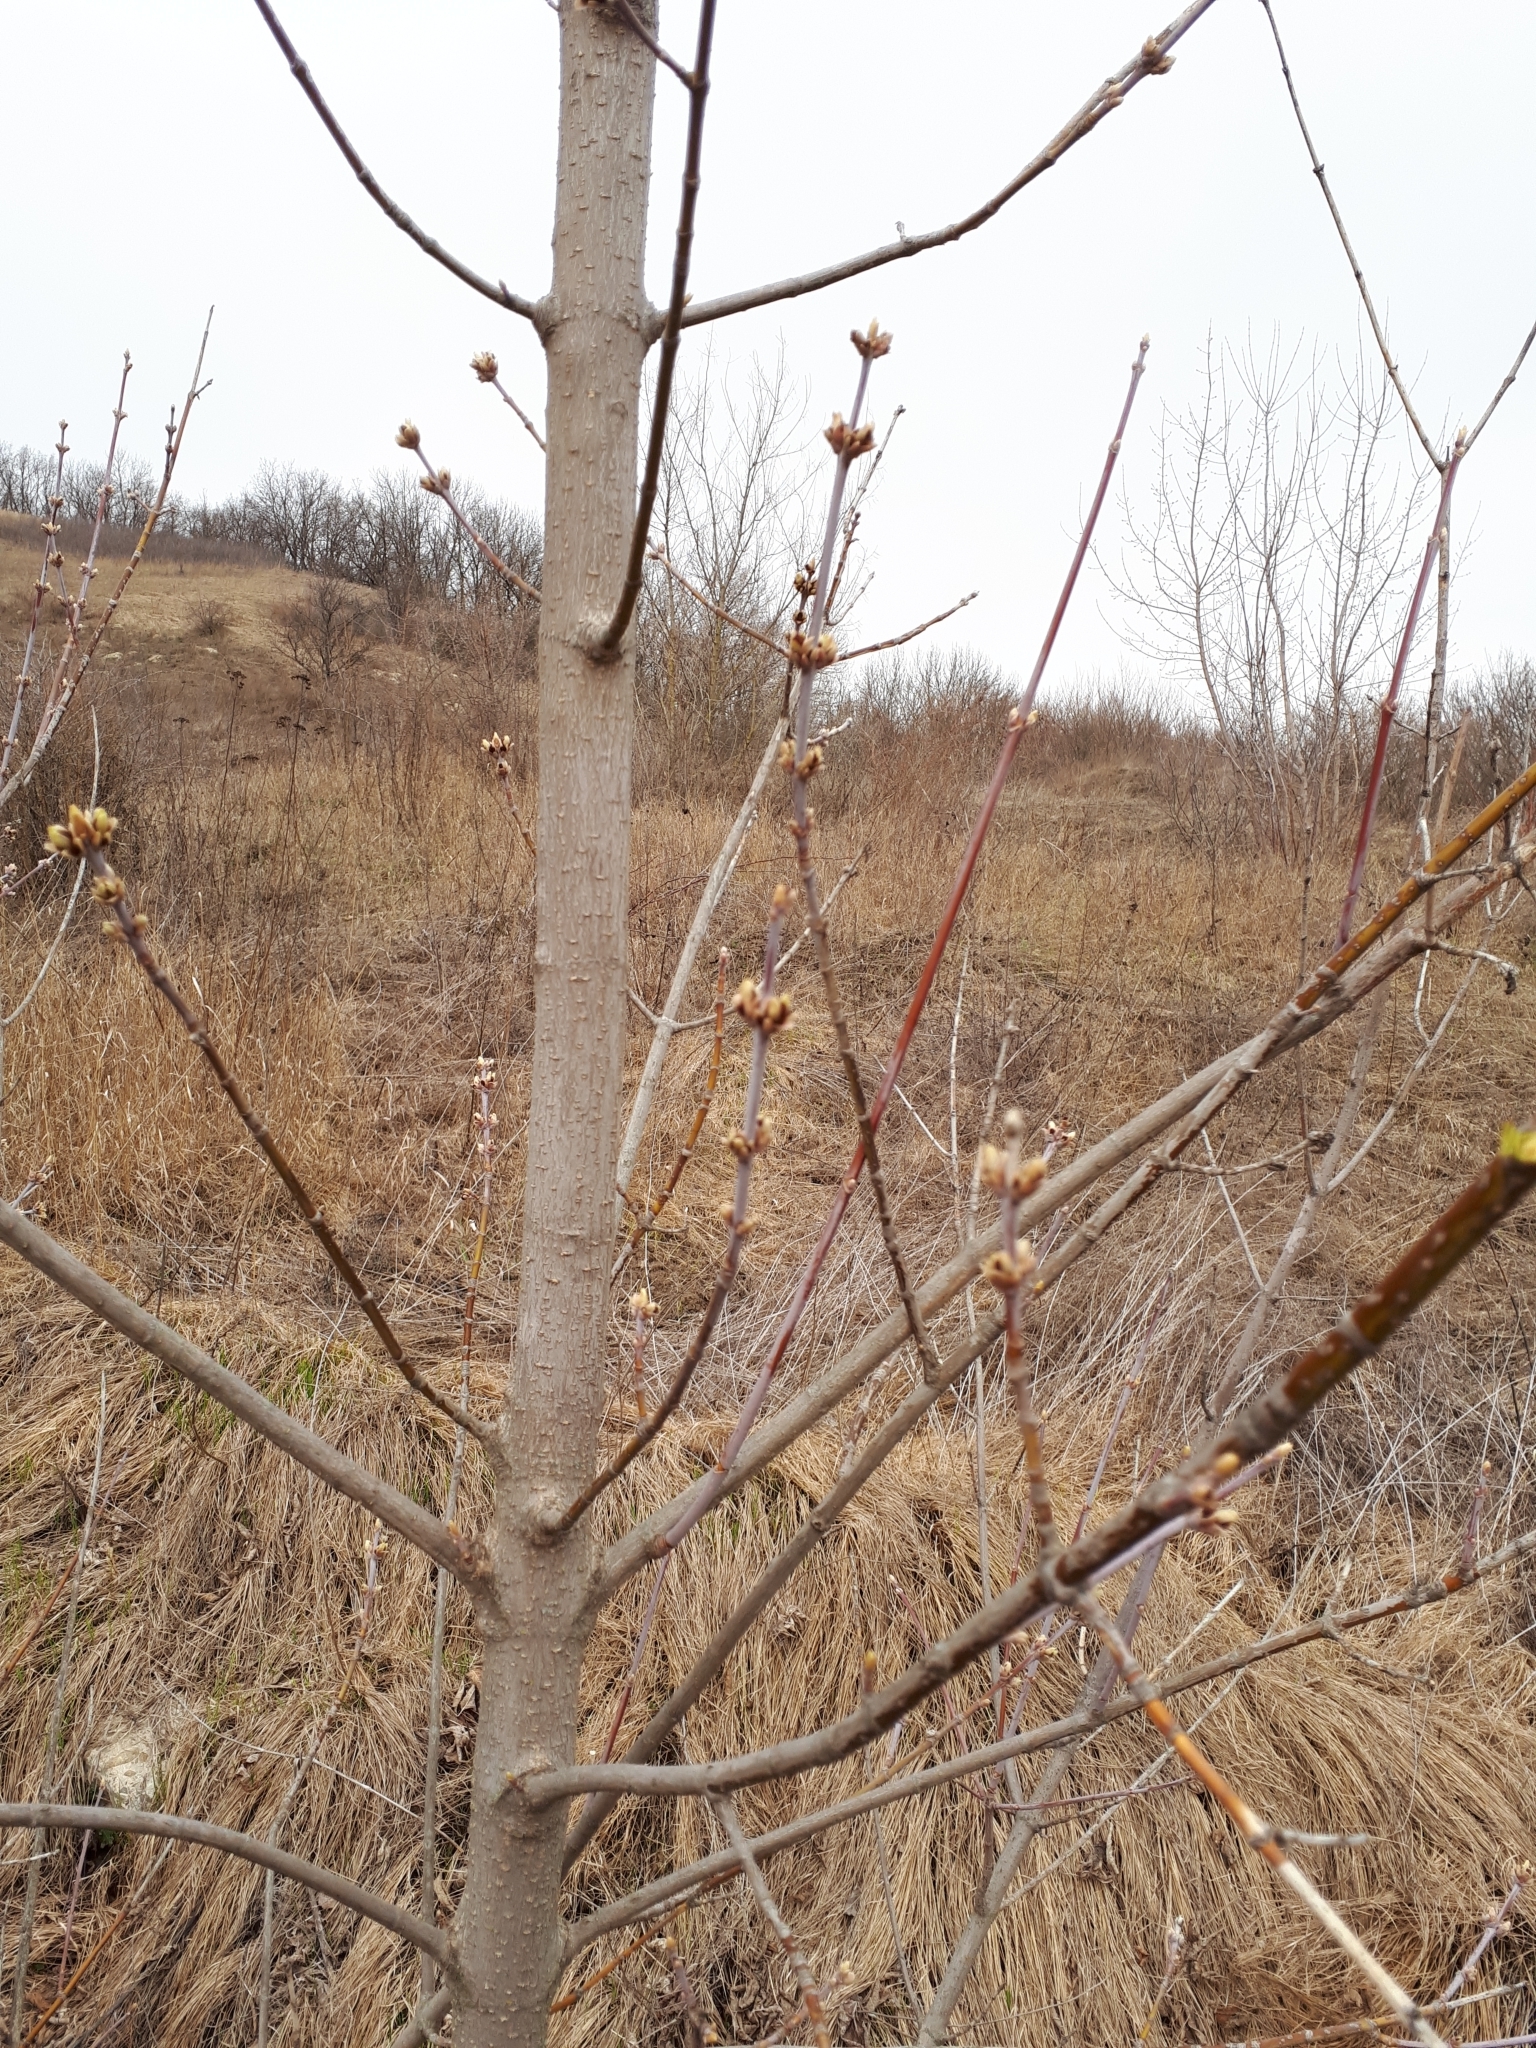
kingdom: Plantae
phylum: Tracheophyta
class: Magnoliopsida
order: Sapindales
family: Sapindaceae
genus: Acer
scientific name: Acer negundo
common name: Ashleaf maple
